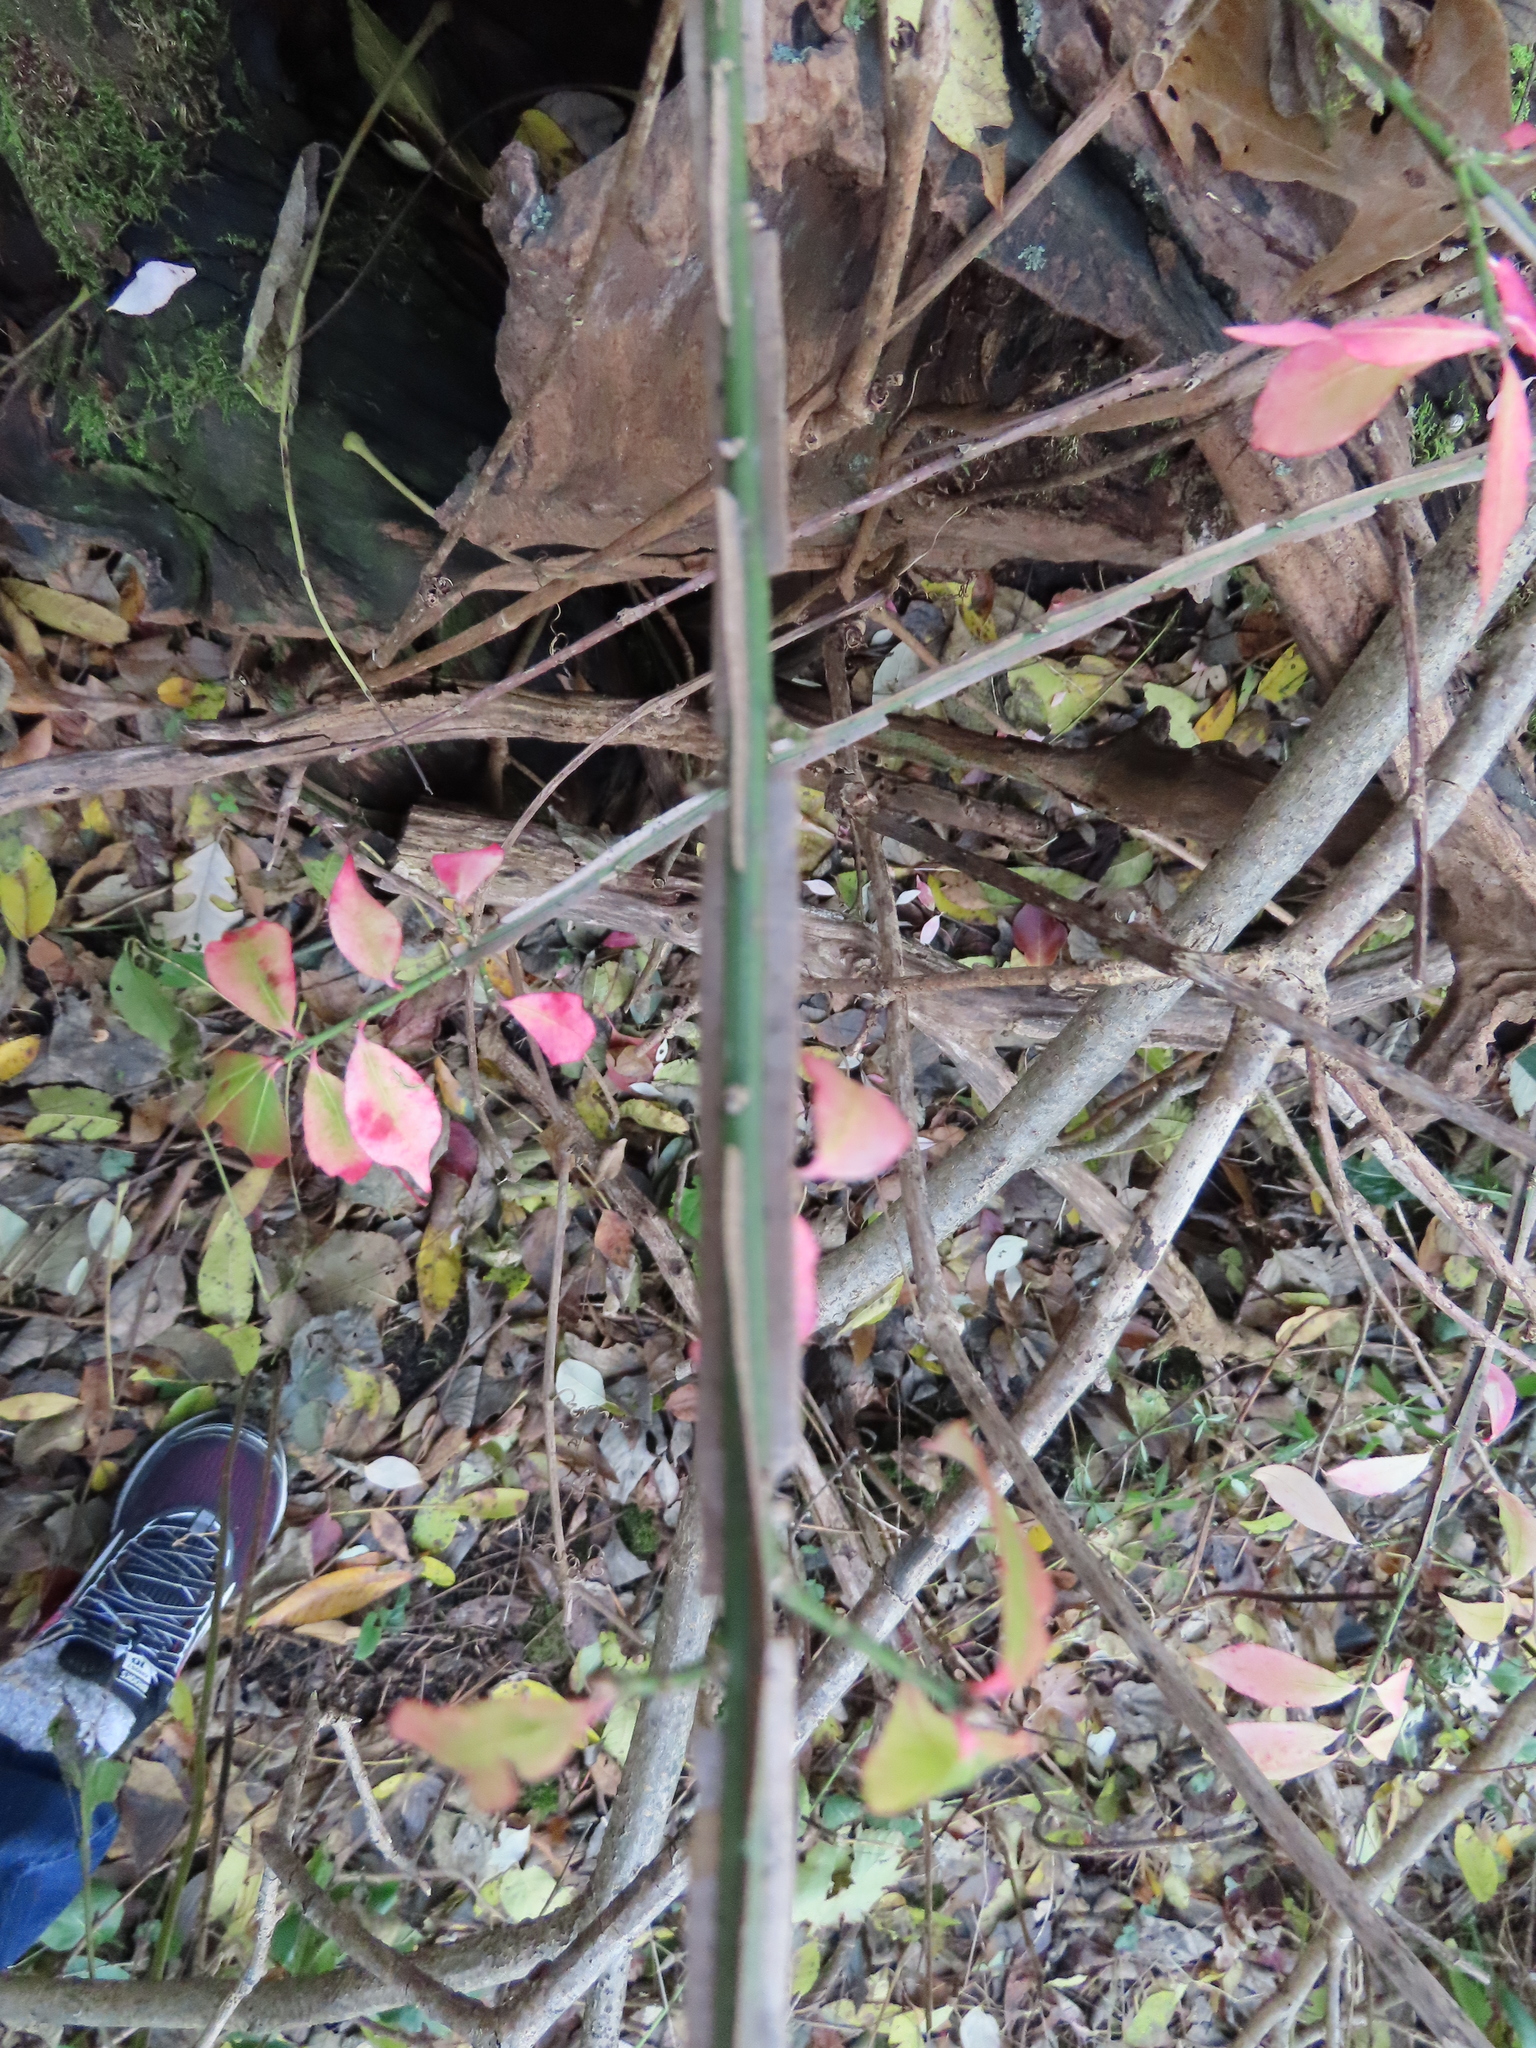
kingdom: Plantae
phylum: Tracheophyta
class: Magnoliopsida
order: Celastrales
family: Celastraceae
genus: Euonymus
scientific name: Euonymus alatus
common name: Winged euonymus
